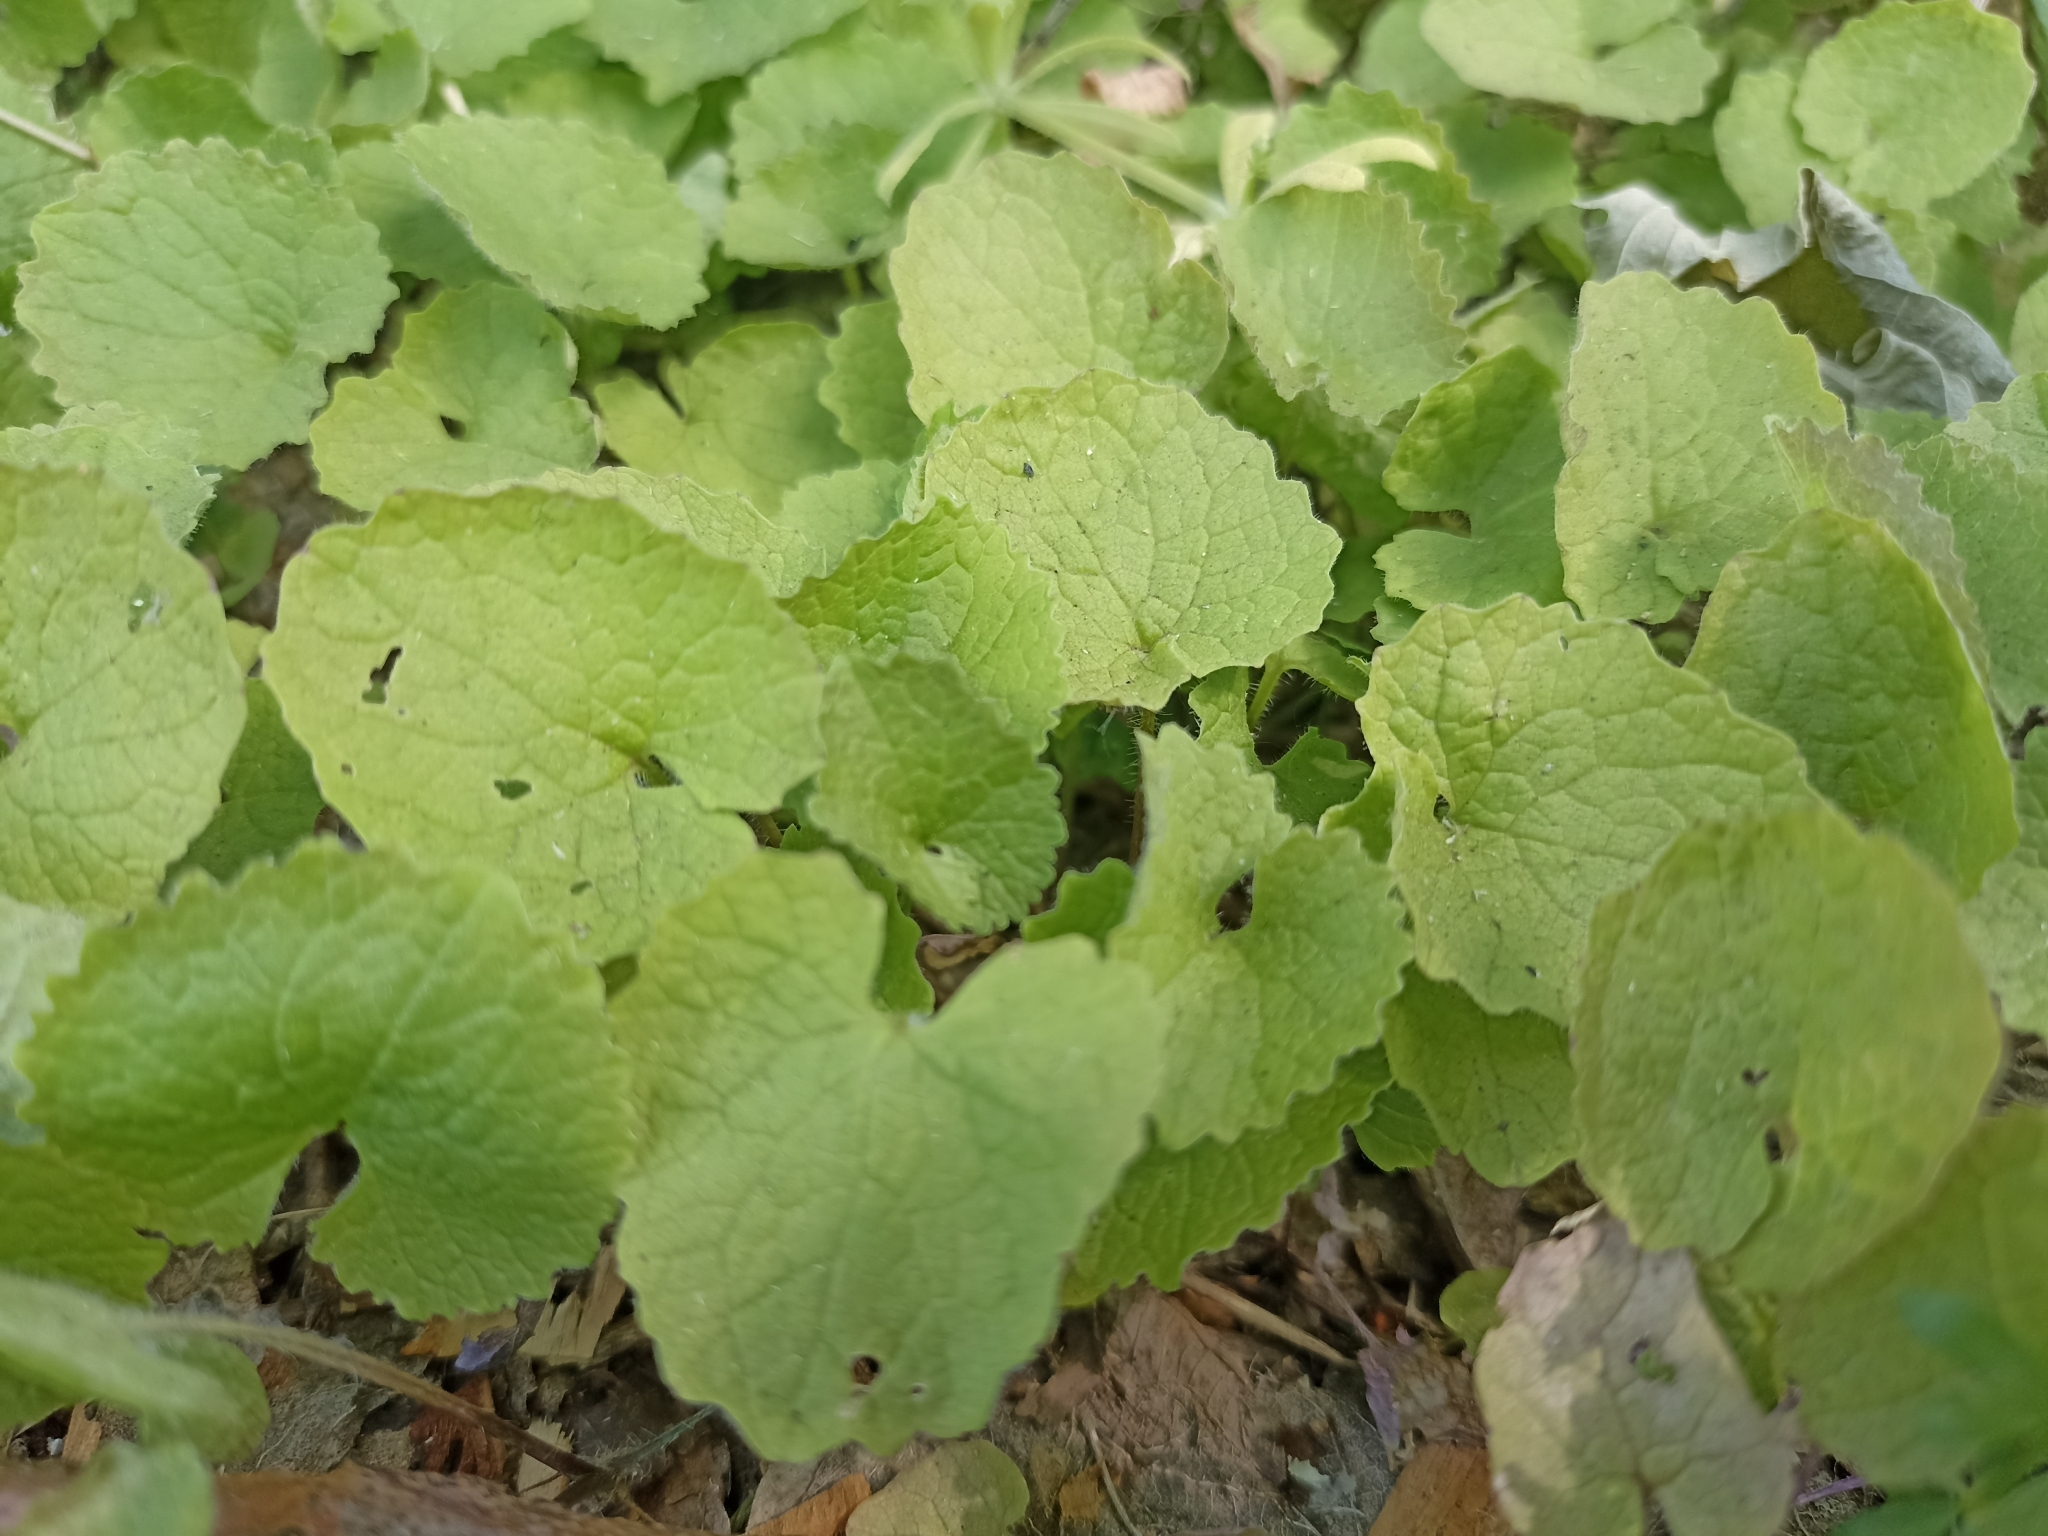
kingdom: Plantae
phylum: Tracheophyta
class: Magnoliopsida
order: Brassicales
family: Brassicaceae
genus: Alliaria
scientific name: Alliaria petiolata
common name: Garlic mustard
